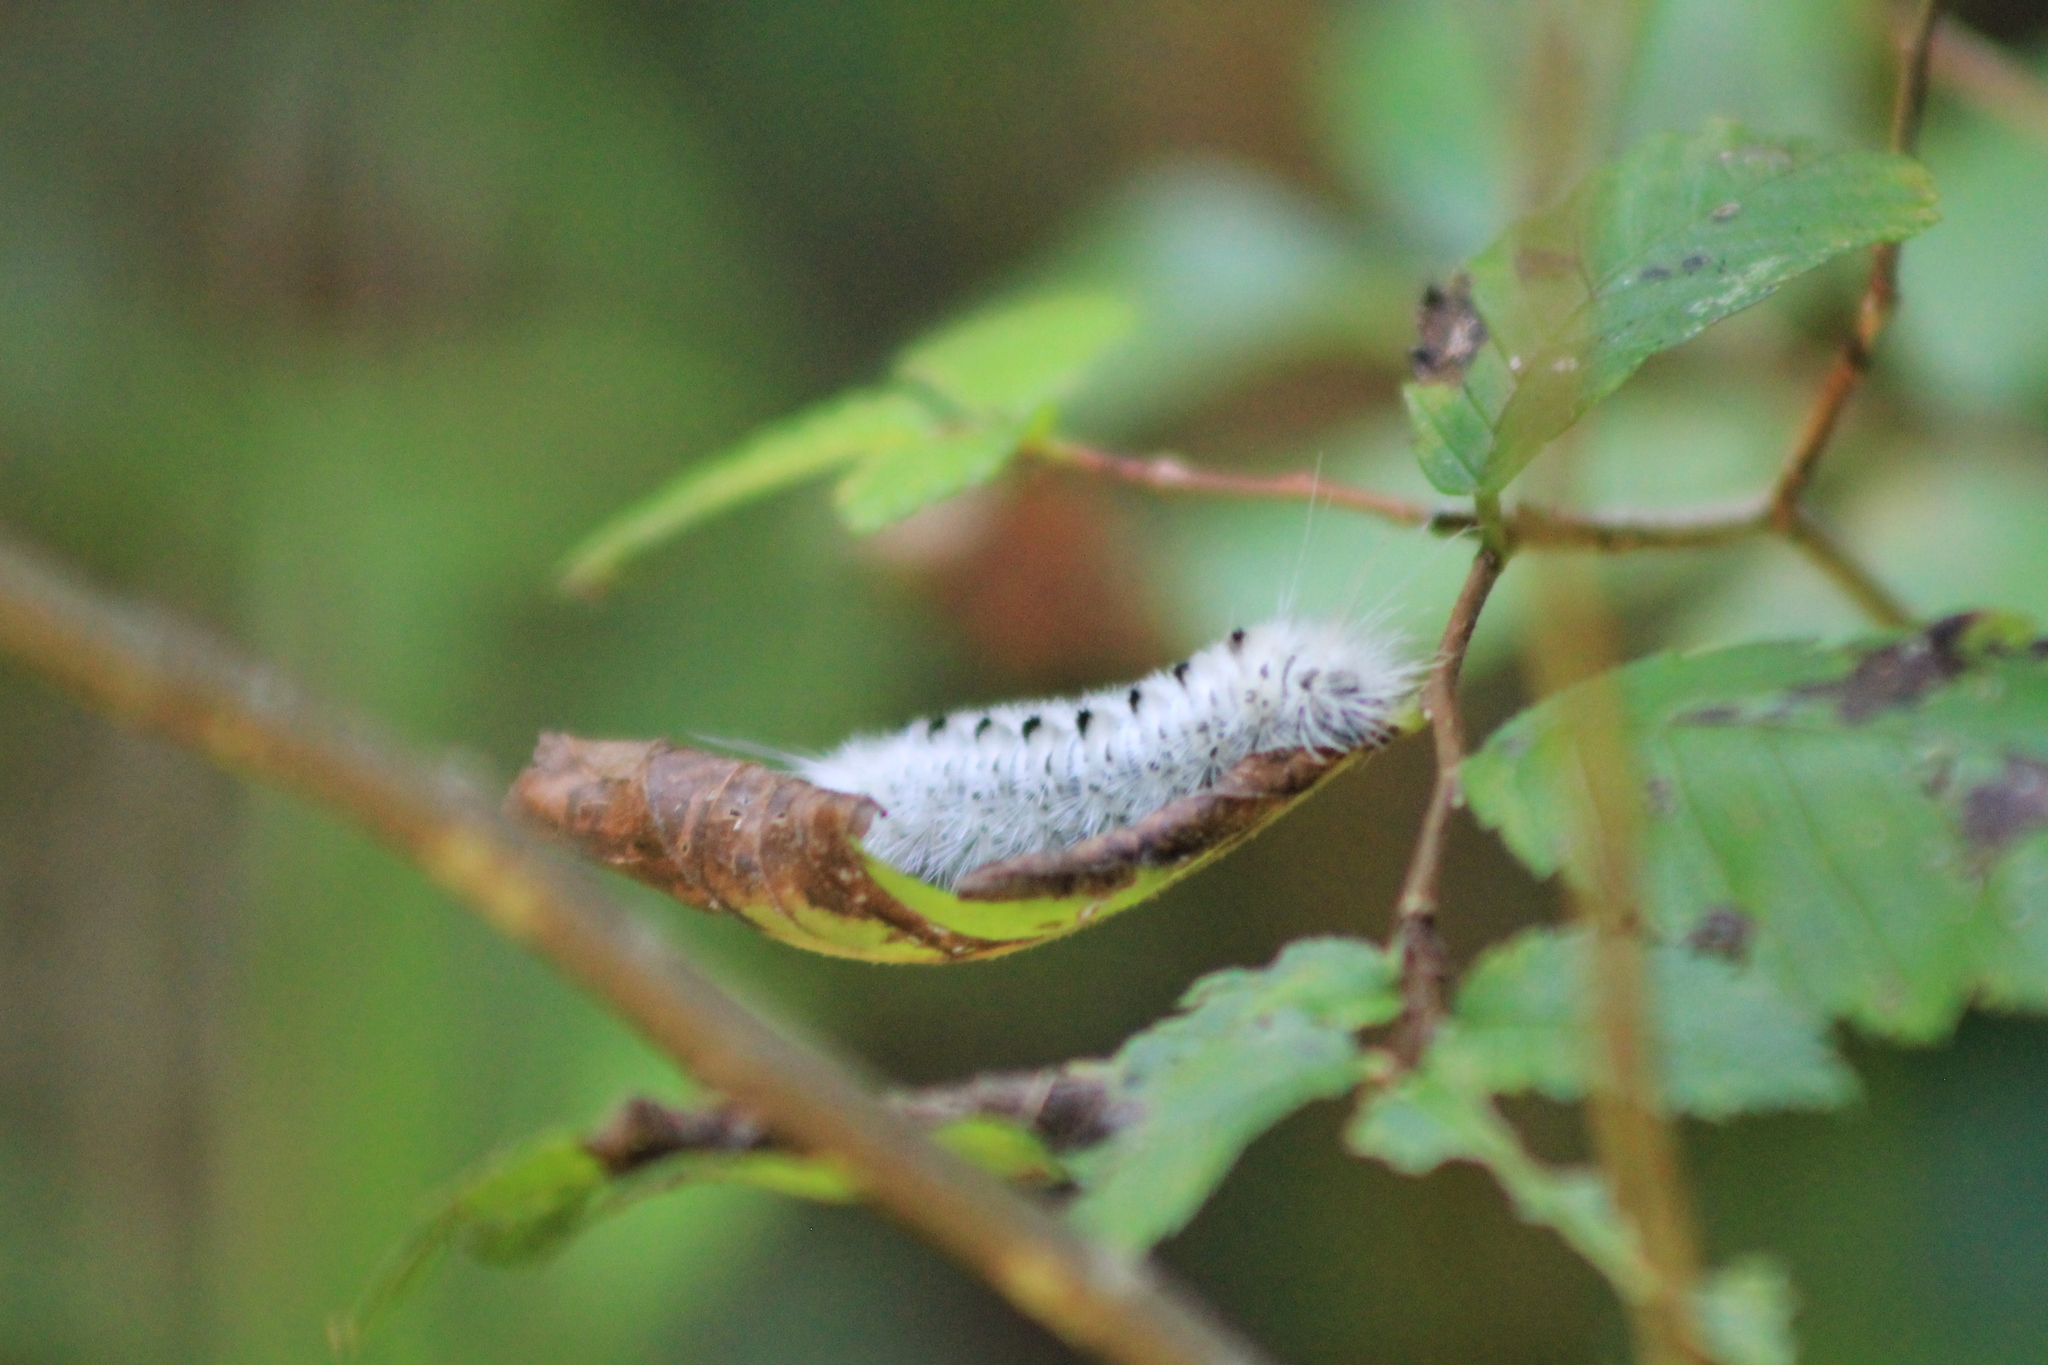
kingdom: Animalia
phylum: Arthropoda
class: Insecta
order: Lepidoptera
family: Erebidae
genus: Lophocampa
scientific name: Lophocampa caryae
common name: Hickory tussock moth
